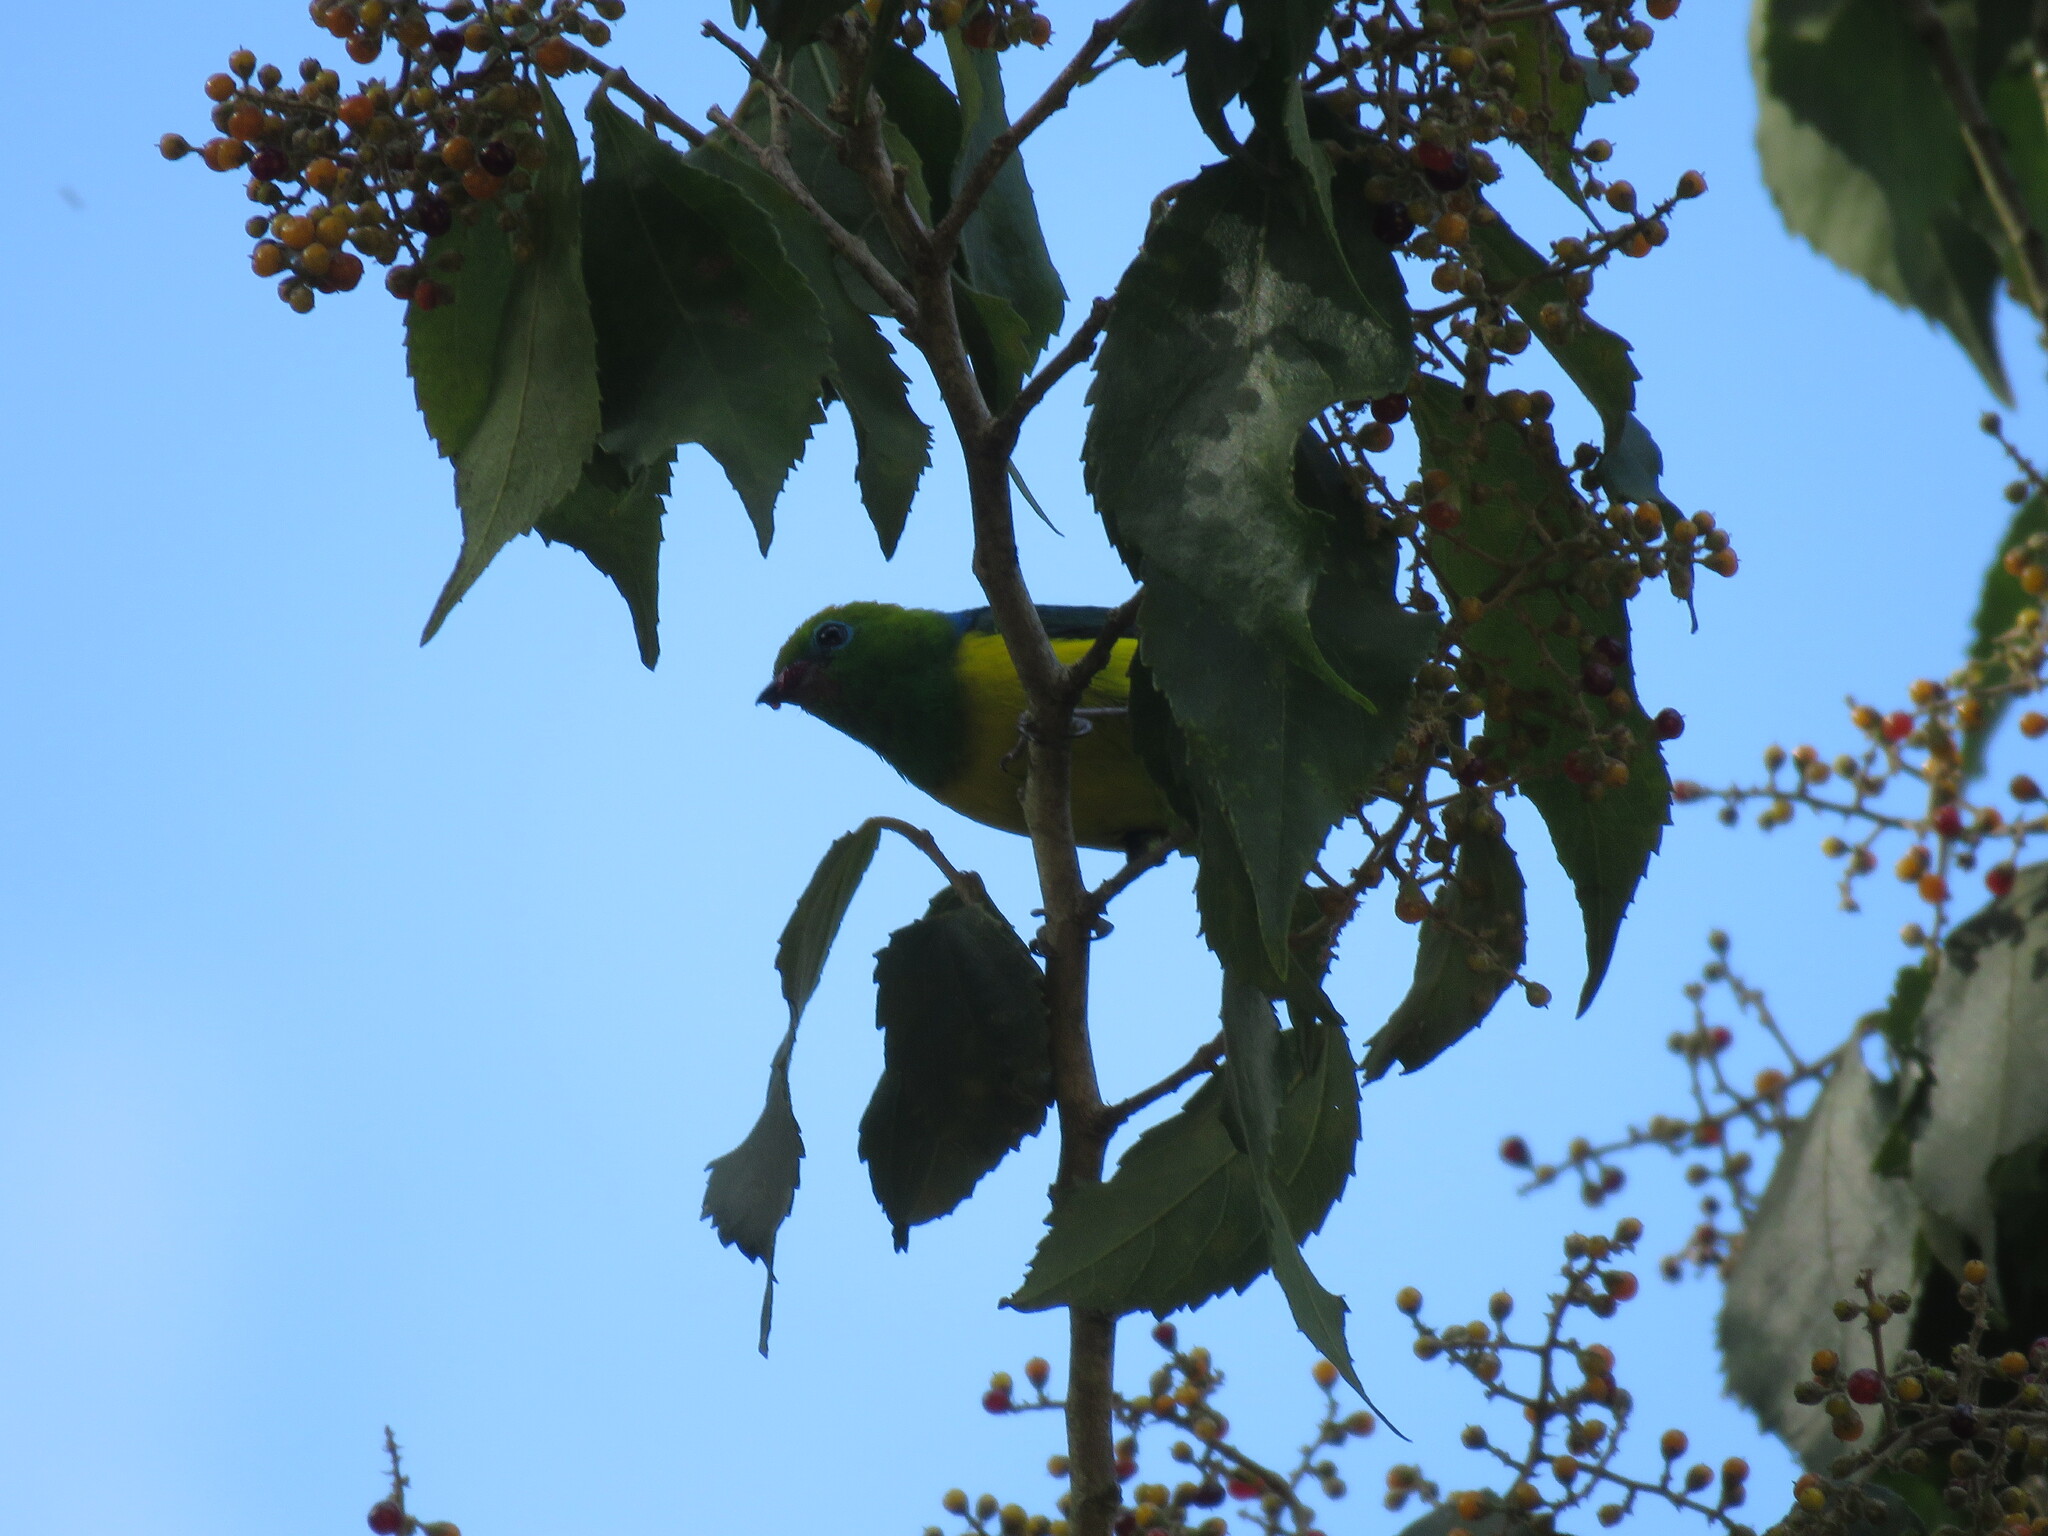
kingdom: Animalia
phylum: Chordata
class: Aves
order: Passeriformes
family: Fringillidae
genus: Chlorophonia
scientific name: Chlorophonia cyanea
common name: Blue-naped chlorophonia
